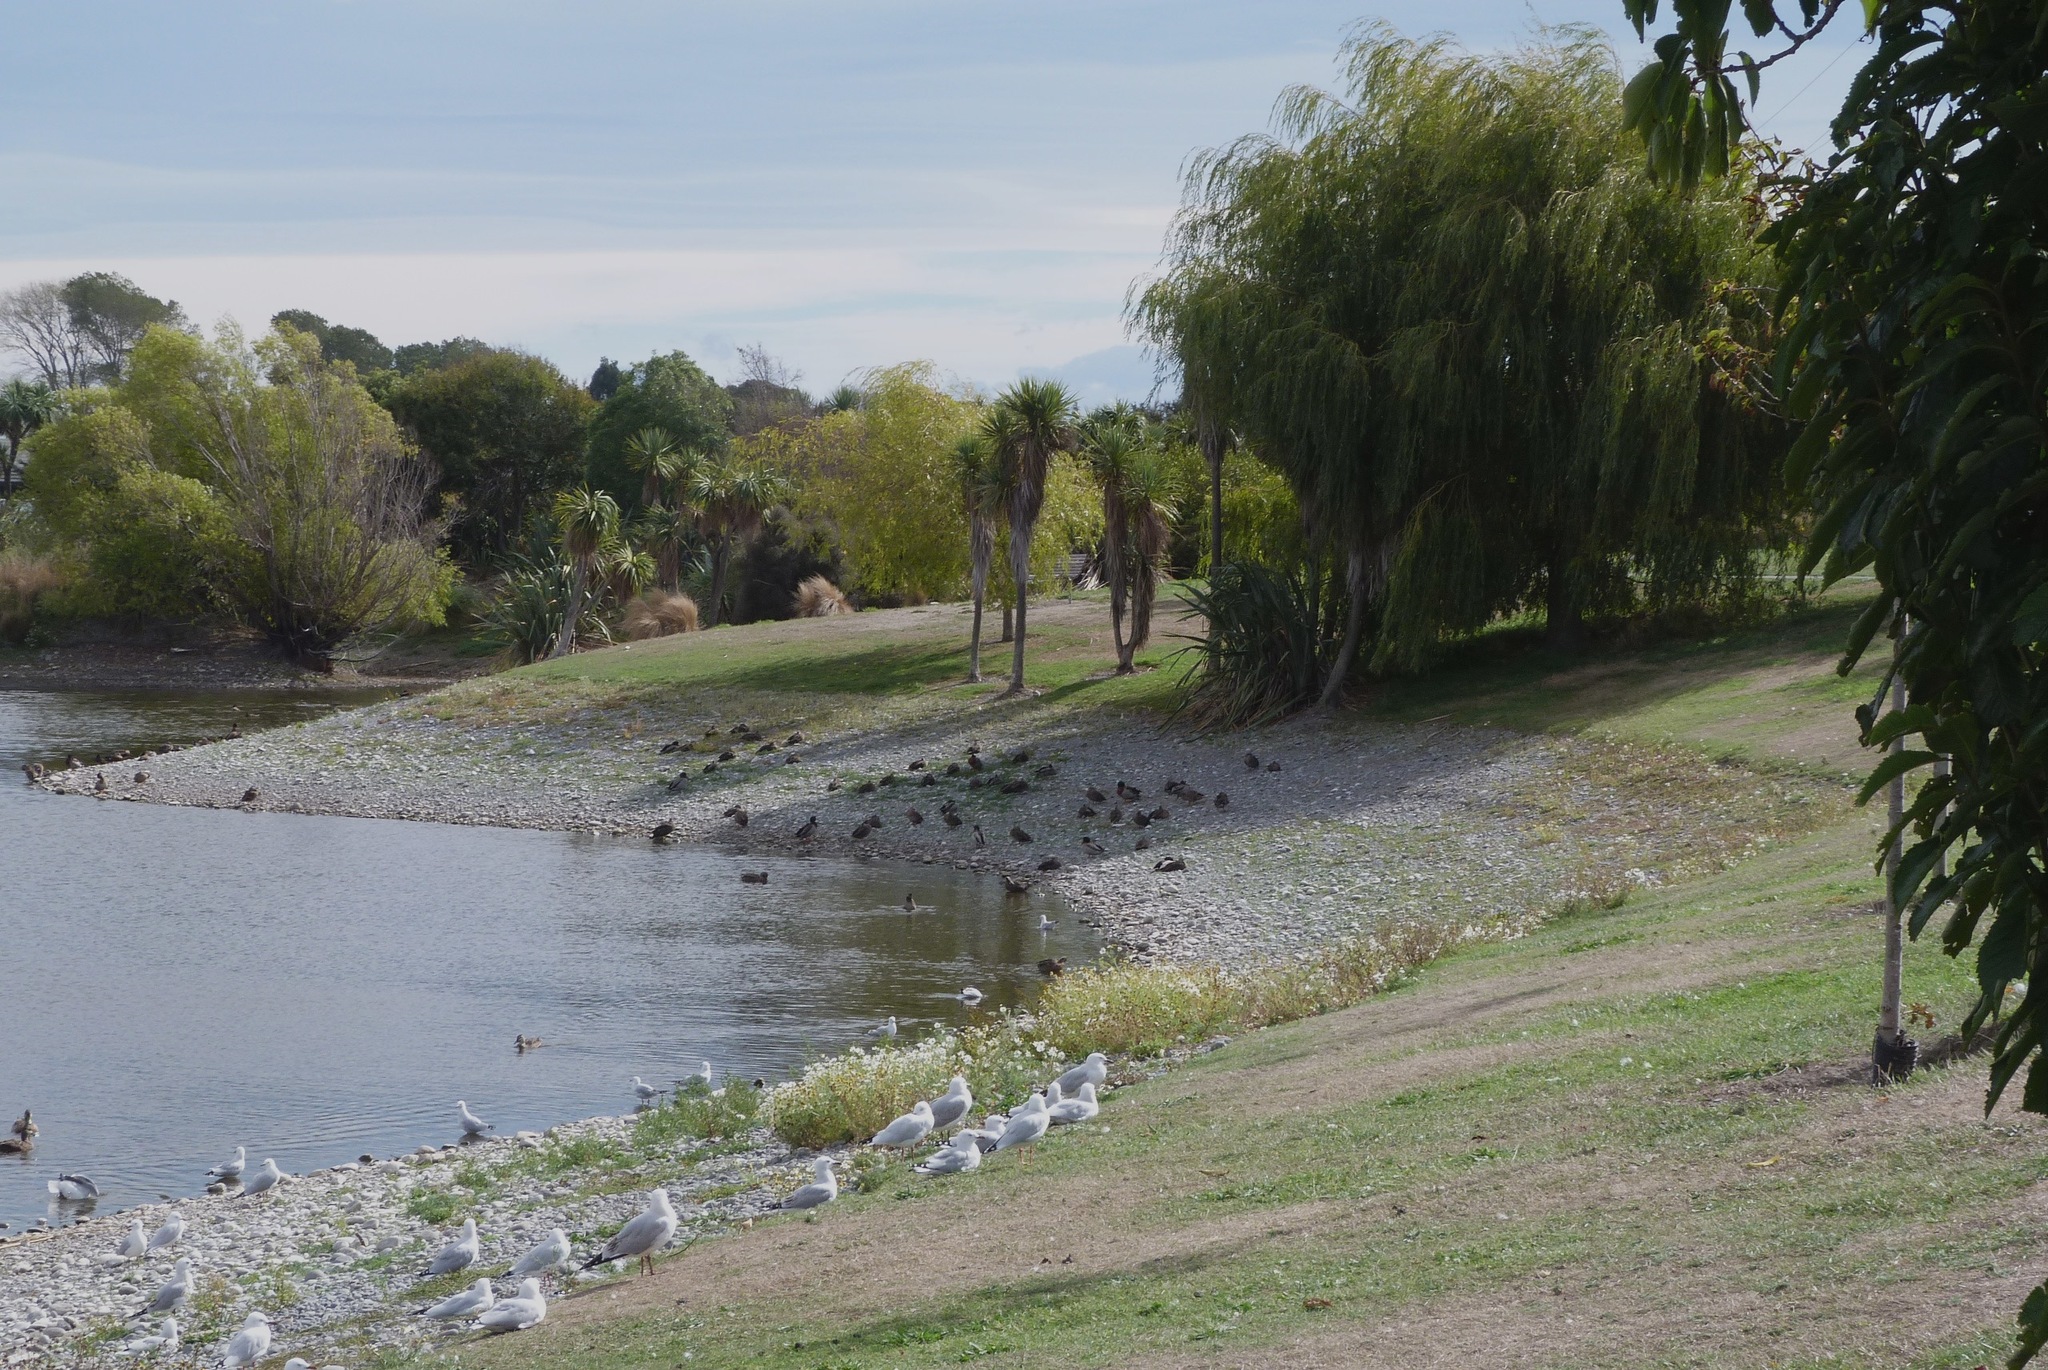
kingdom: Animalia
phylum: Chordata
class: Aves
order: Charadriiformes
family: Laridae
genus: Chroicocephalus
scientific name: Chroicocephalus novaehollandiae
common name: Silver gull
